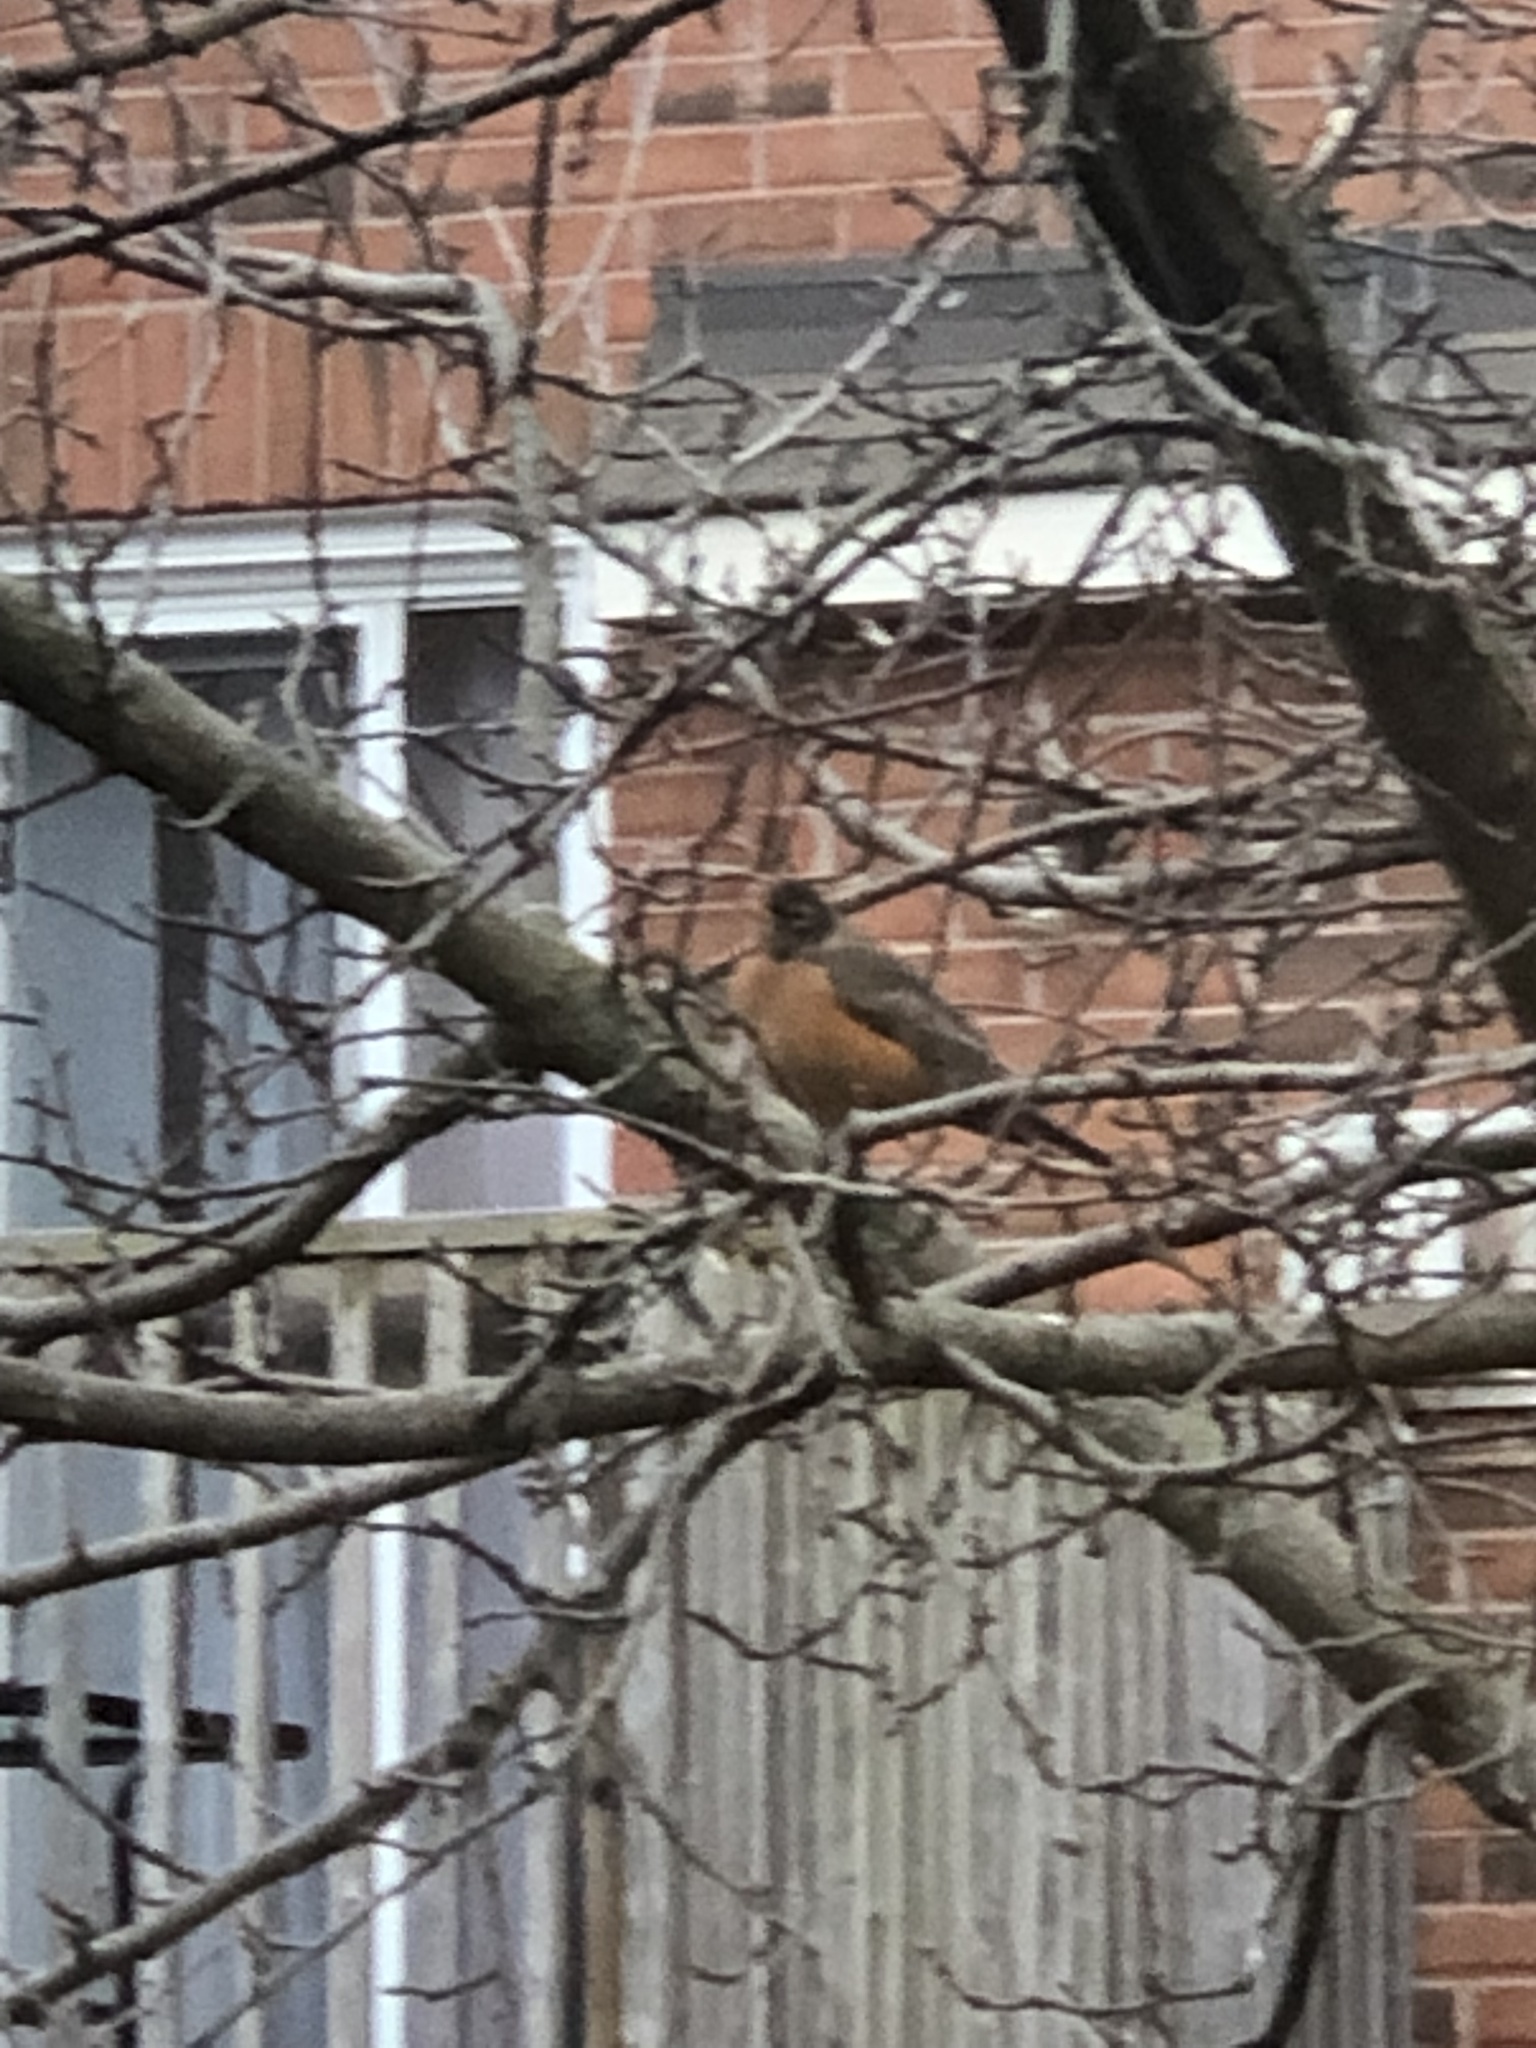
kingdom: Animalia
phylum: Chordata
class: Aves
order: Passeriformes
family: Turdidae
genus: Turdus
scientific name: Turdus migratorius
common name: American robin
